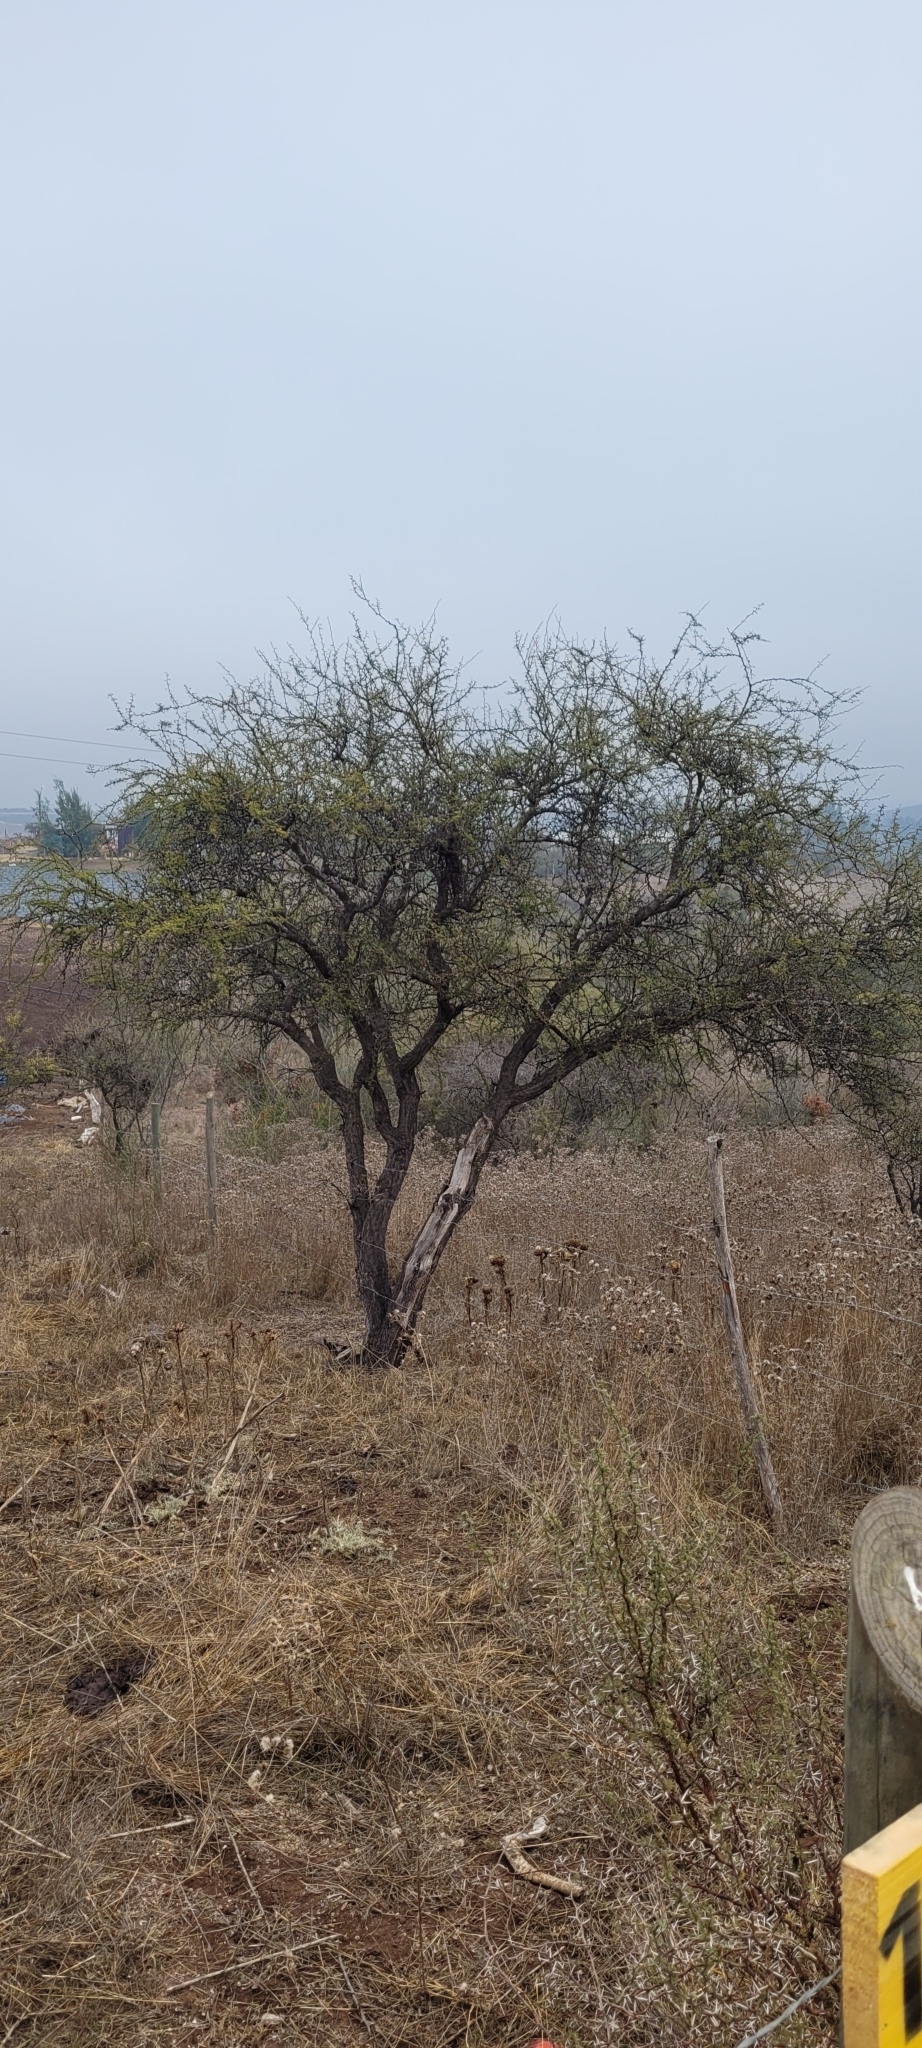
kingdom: Plantae
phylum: Tracheophyta
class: Magnoliopsida
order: Fabales
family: Fabaceae
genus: Vachellia
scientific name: Vachellia caven
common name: Roman cassie
